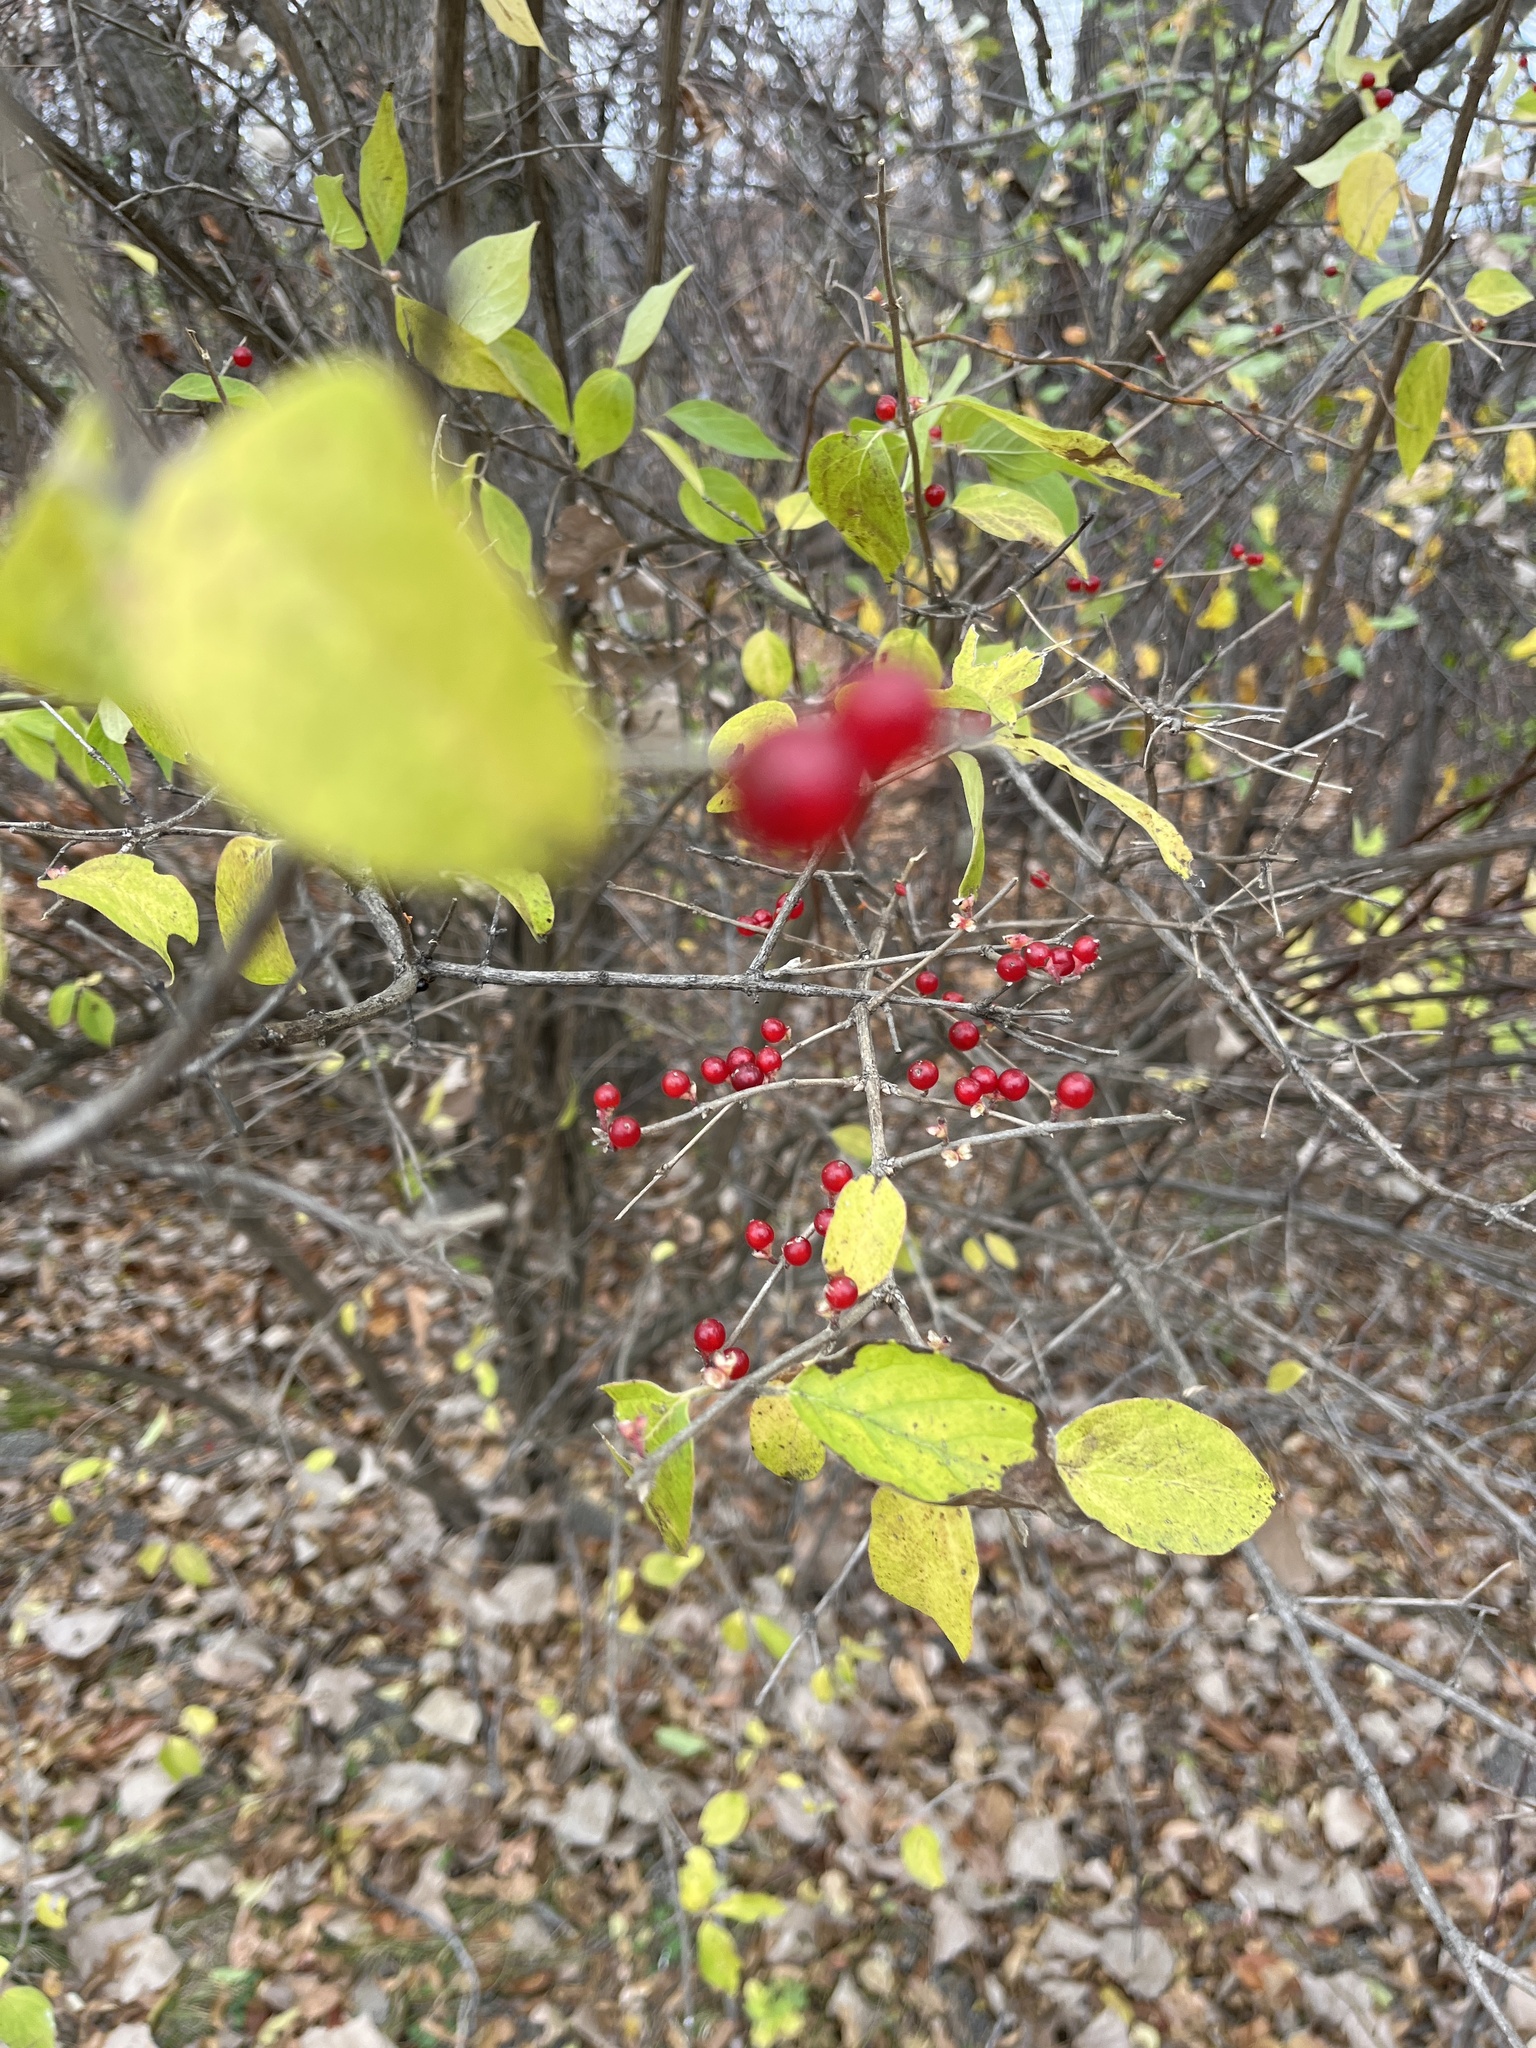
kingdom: Plantae
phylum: Tracheophyta
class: Magnoliopsida
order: Dipsacales
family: Caprifoliaceae
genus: Lonicera
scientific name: Lonicera maackii
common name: Amur honeysuckle
